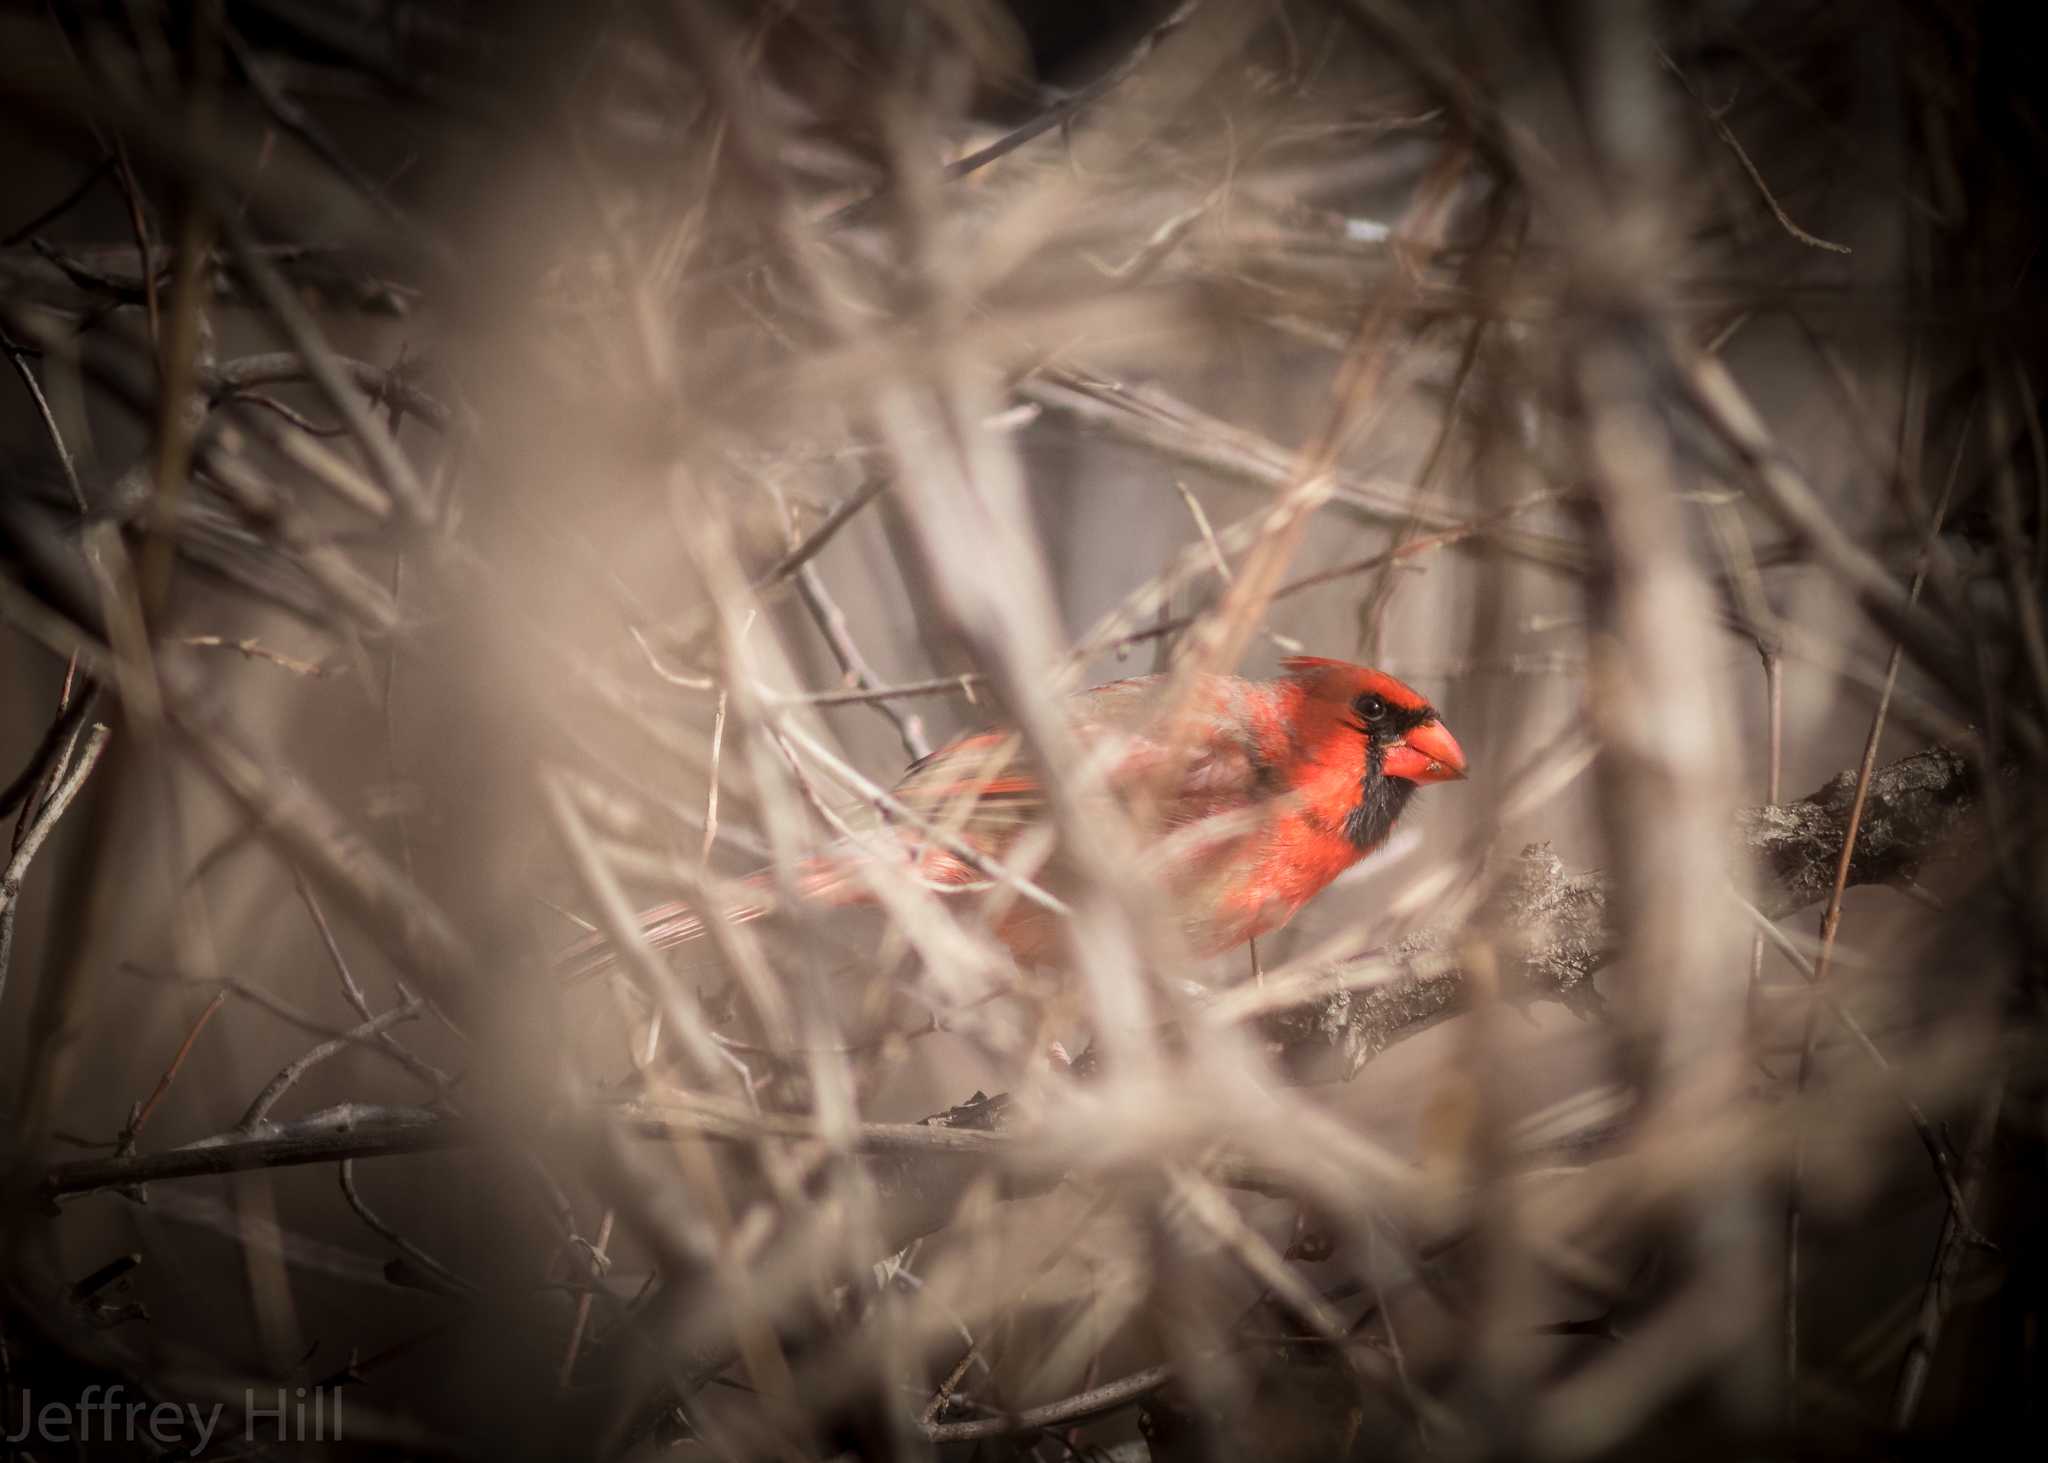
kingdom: Animalia
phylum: Chordata
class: Aves
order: Passeriformes
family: Cardinalidae
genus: Cardinalis
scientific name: Cardinalis cardinalis
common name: Northern cardinal
